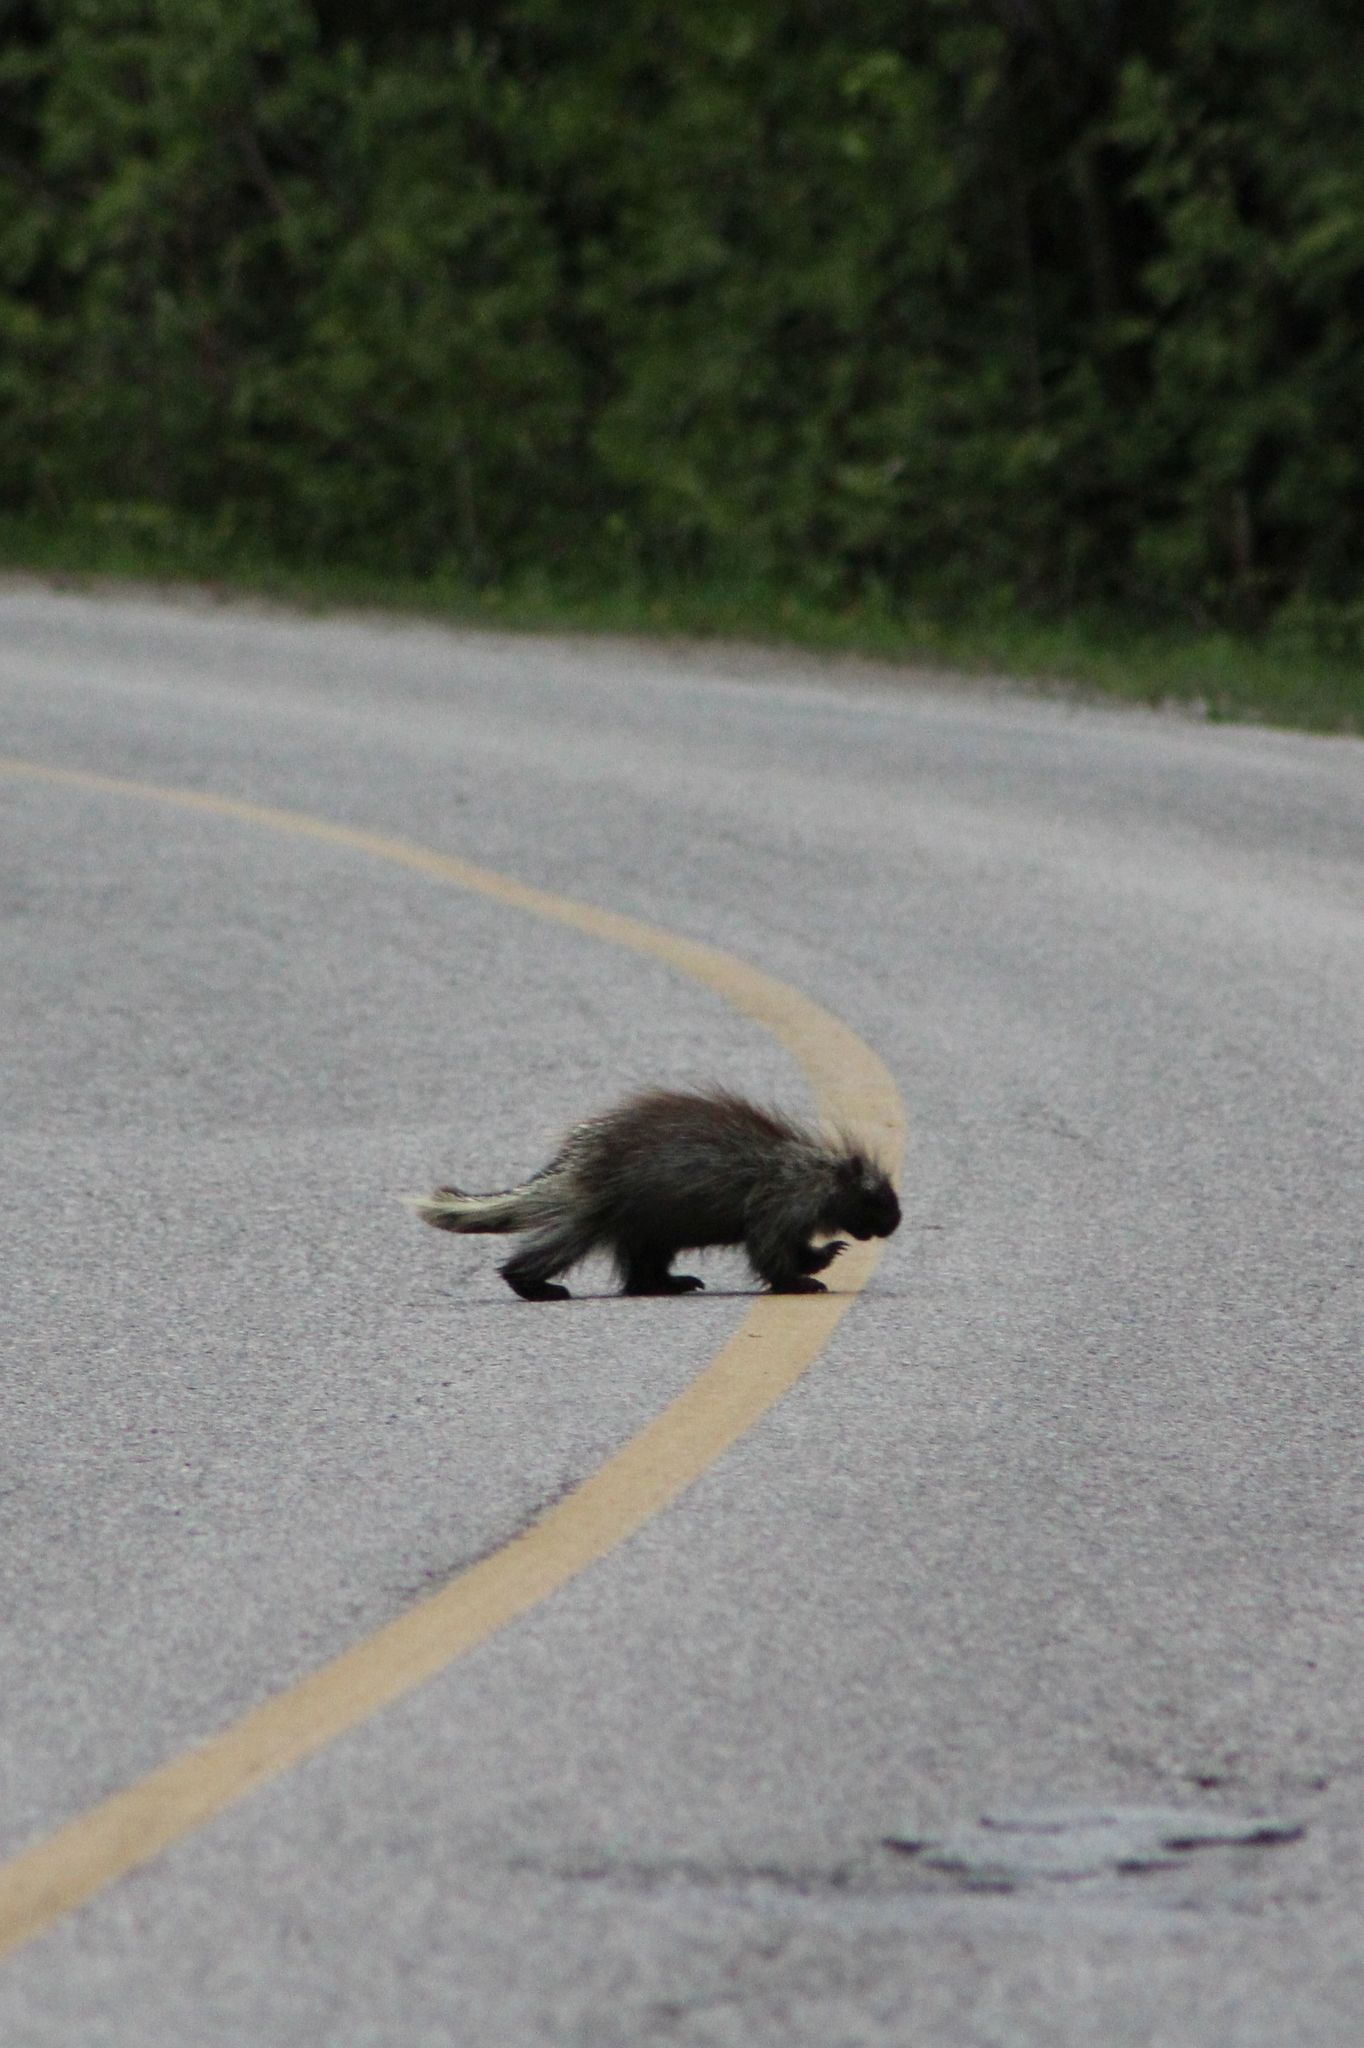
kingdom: Animalia
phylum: Chordata
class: Mammalia
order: Rodentia
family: Erethizontidae
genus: Erethizon
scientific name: Erethizon dorsatus
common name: North american porcupine
